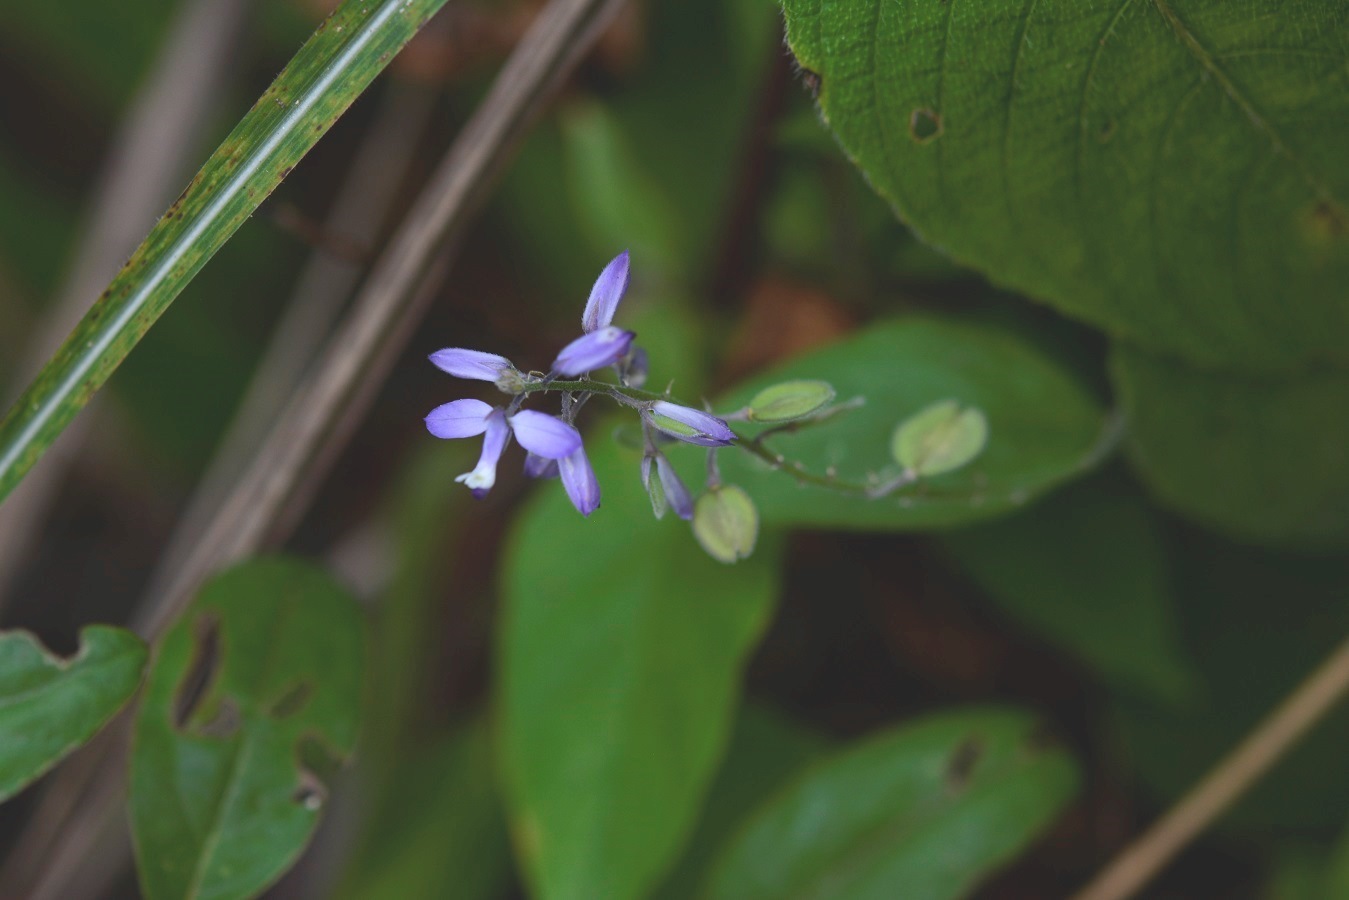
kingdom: Plantae
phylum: Tracheophyta
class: Magnoliopsida
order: Fabales
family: Polygalaceae
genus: Hebecarpa
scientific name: Hebecarpa costaricensis
